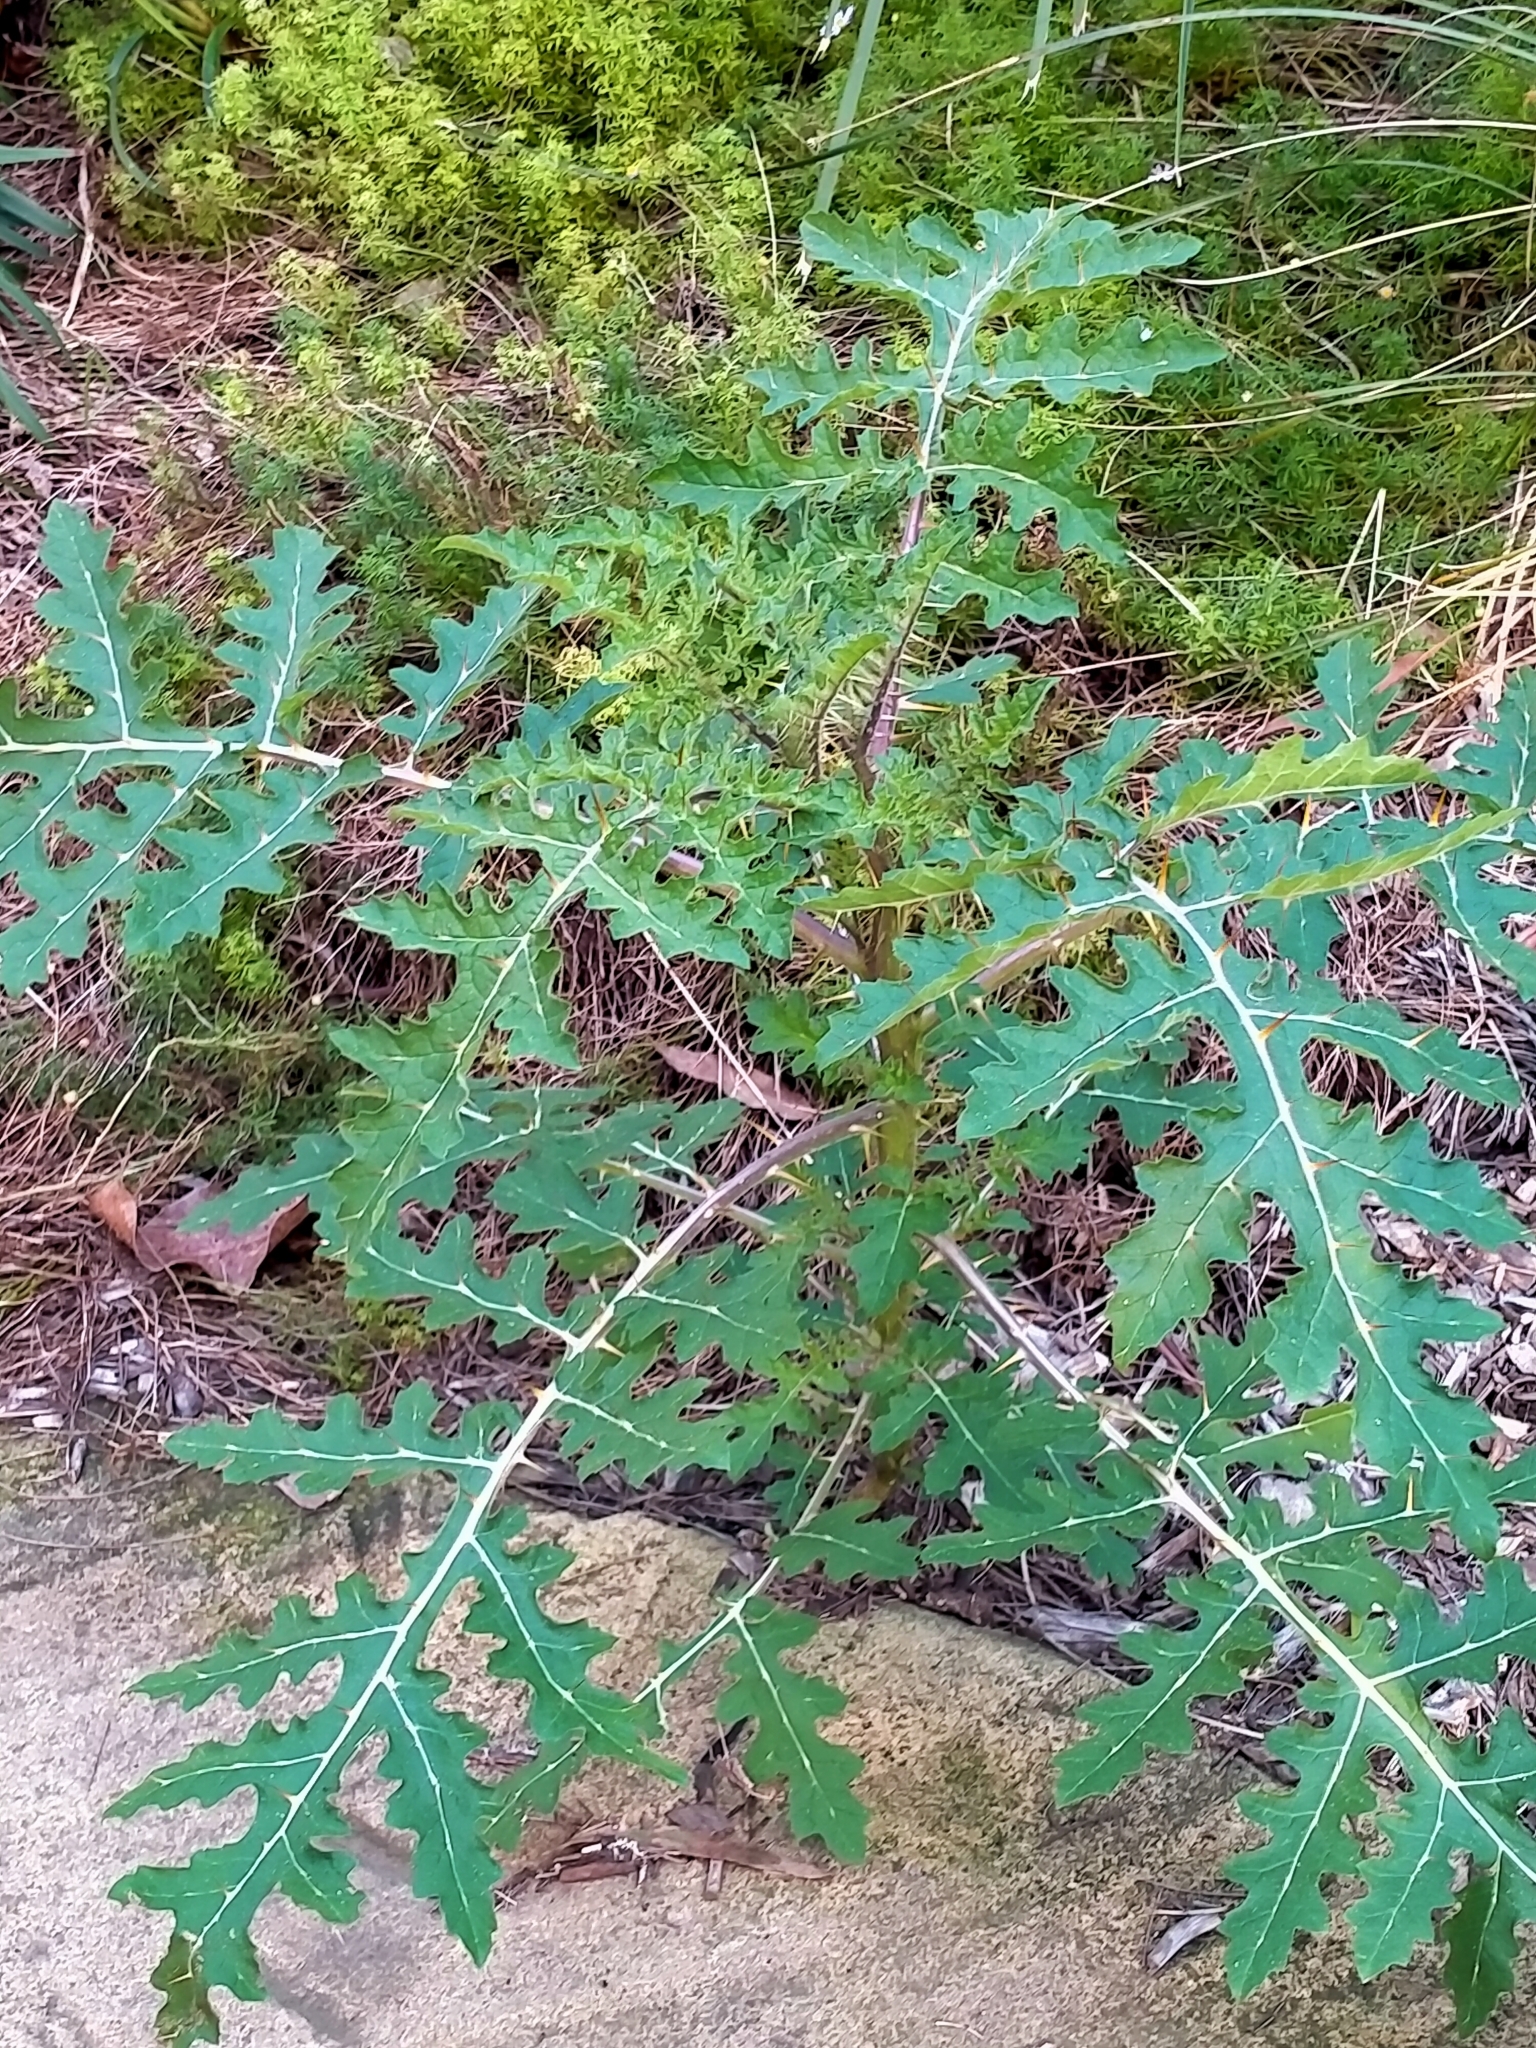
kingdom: Plantae
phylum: Tracheophyta
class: Magnoliopsida
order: Solanales
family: Solanaceae
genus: Solanum
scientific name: Solanum sisymbriifolium
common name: Red buffalo-bur
